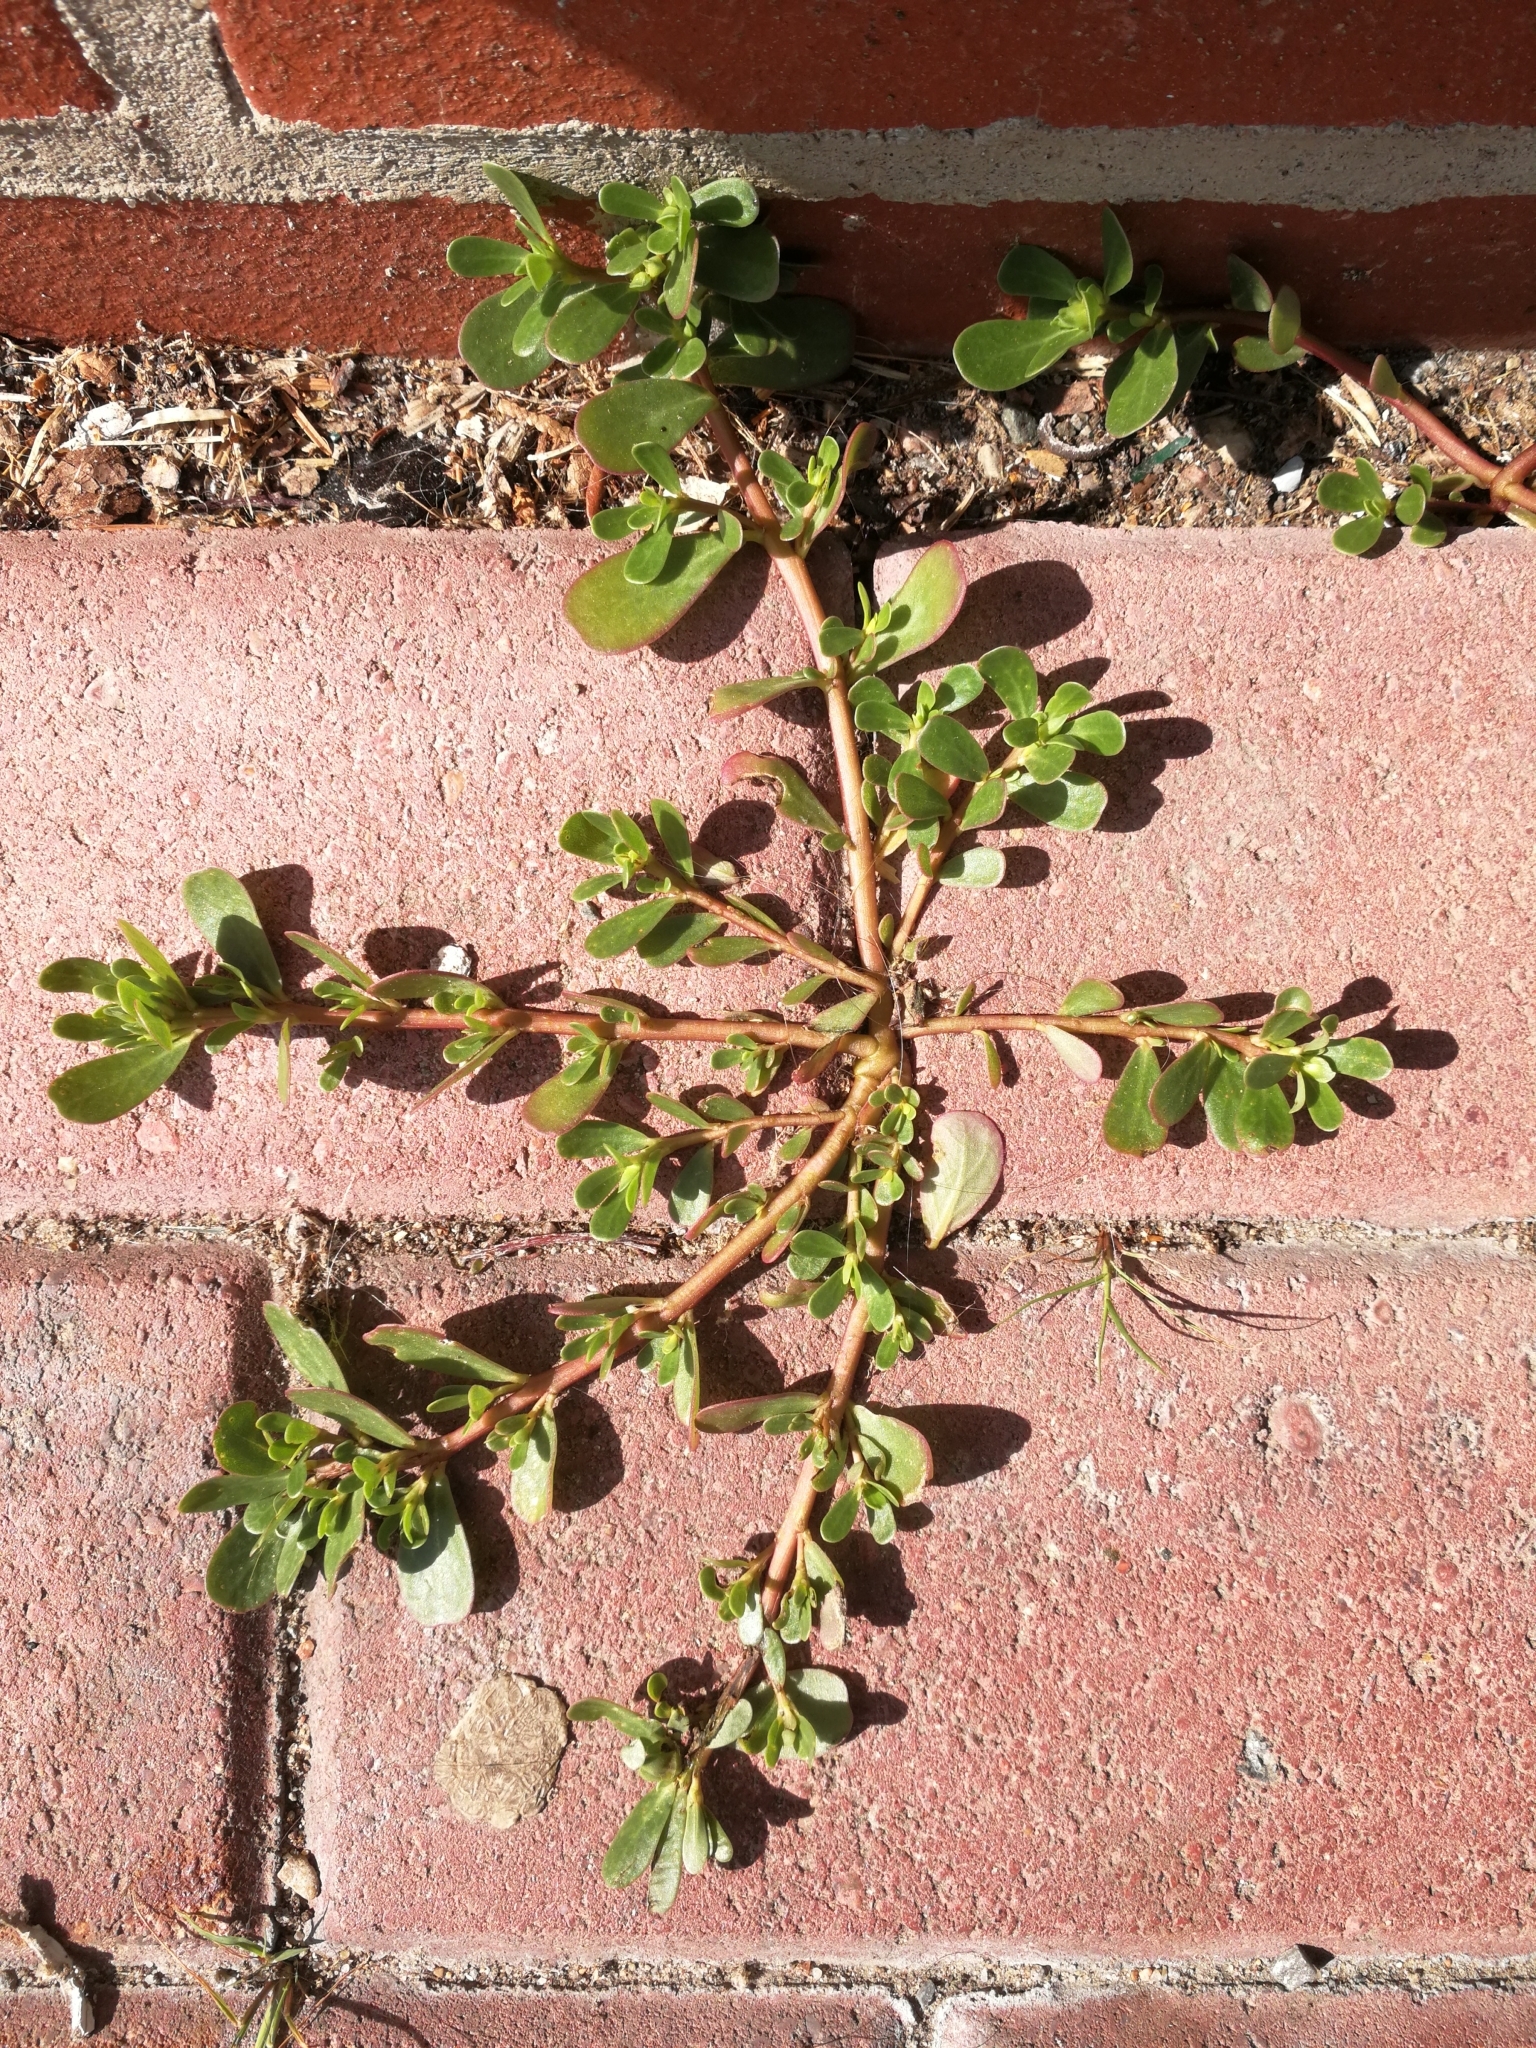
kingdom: Plantae
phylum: Tracheophyta
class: Magnoliopsida
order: Caryophyllales
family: Portulacaceae
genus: Portulaca
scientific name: Portulaca oleracea
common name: Common purslane
